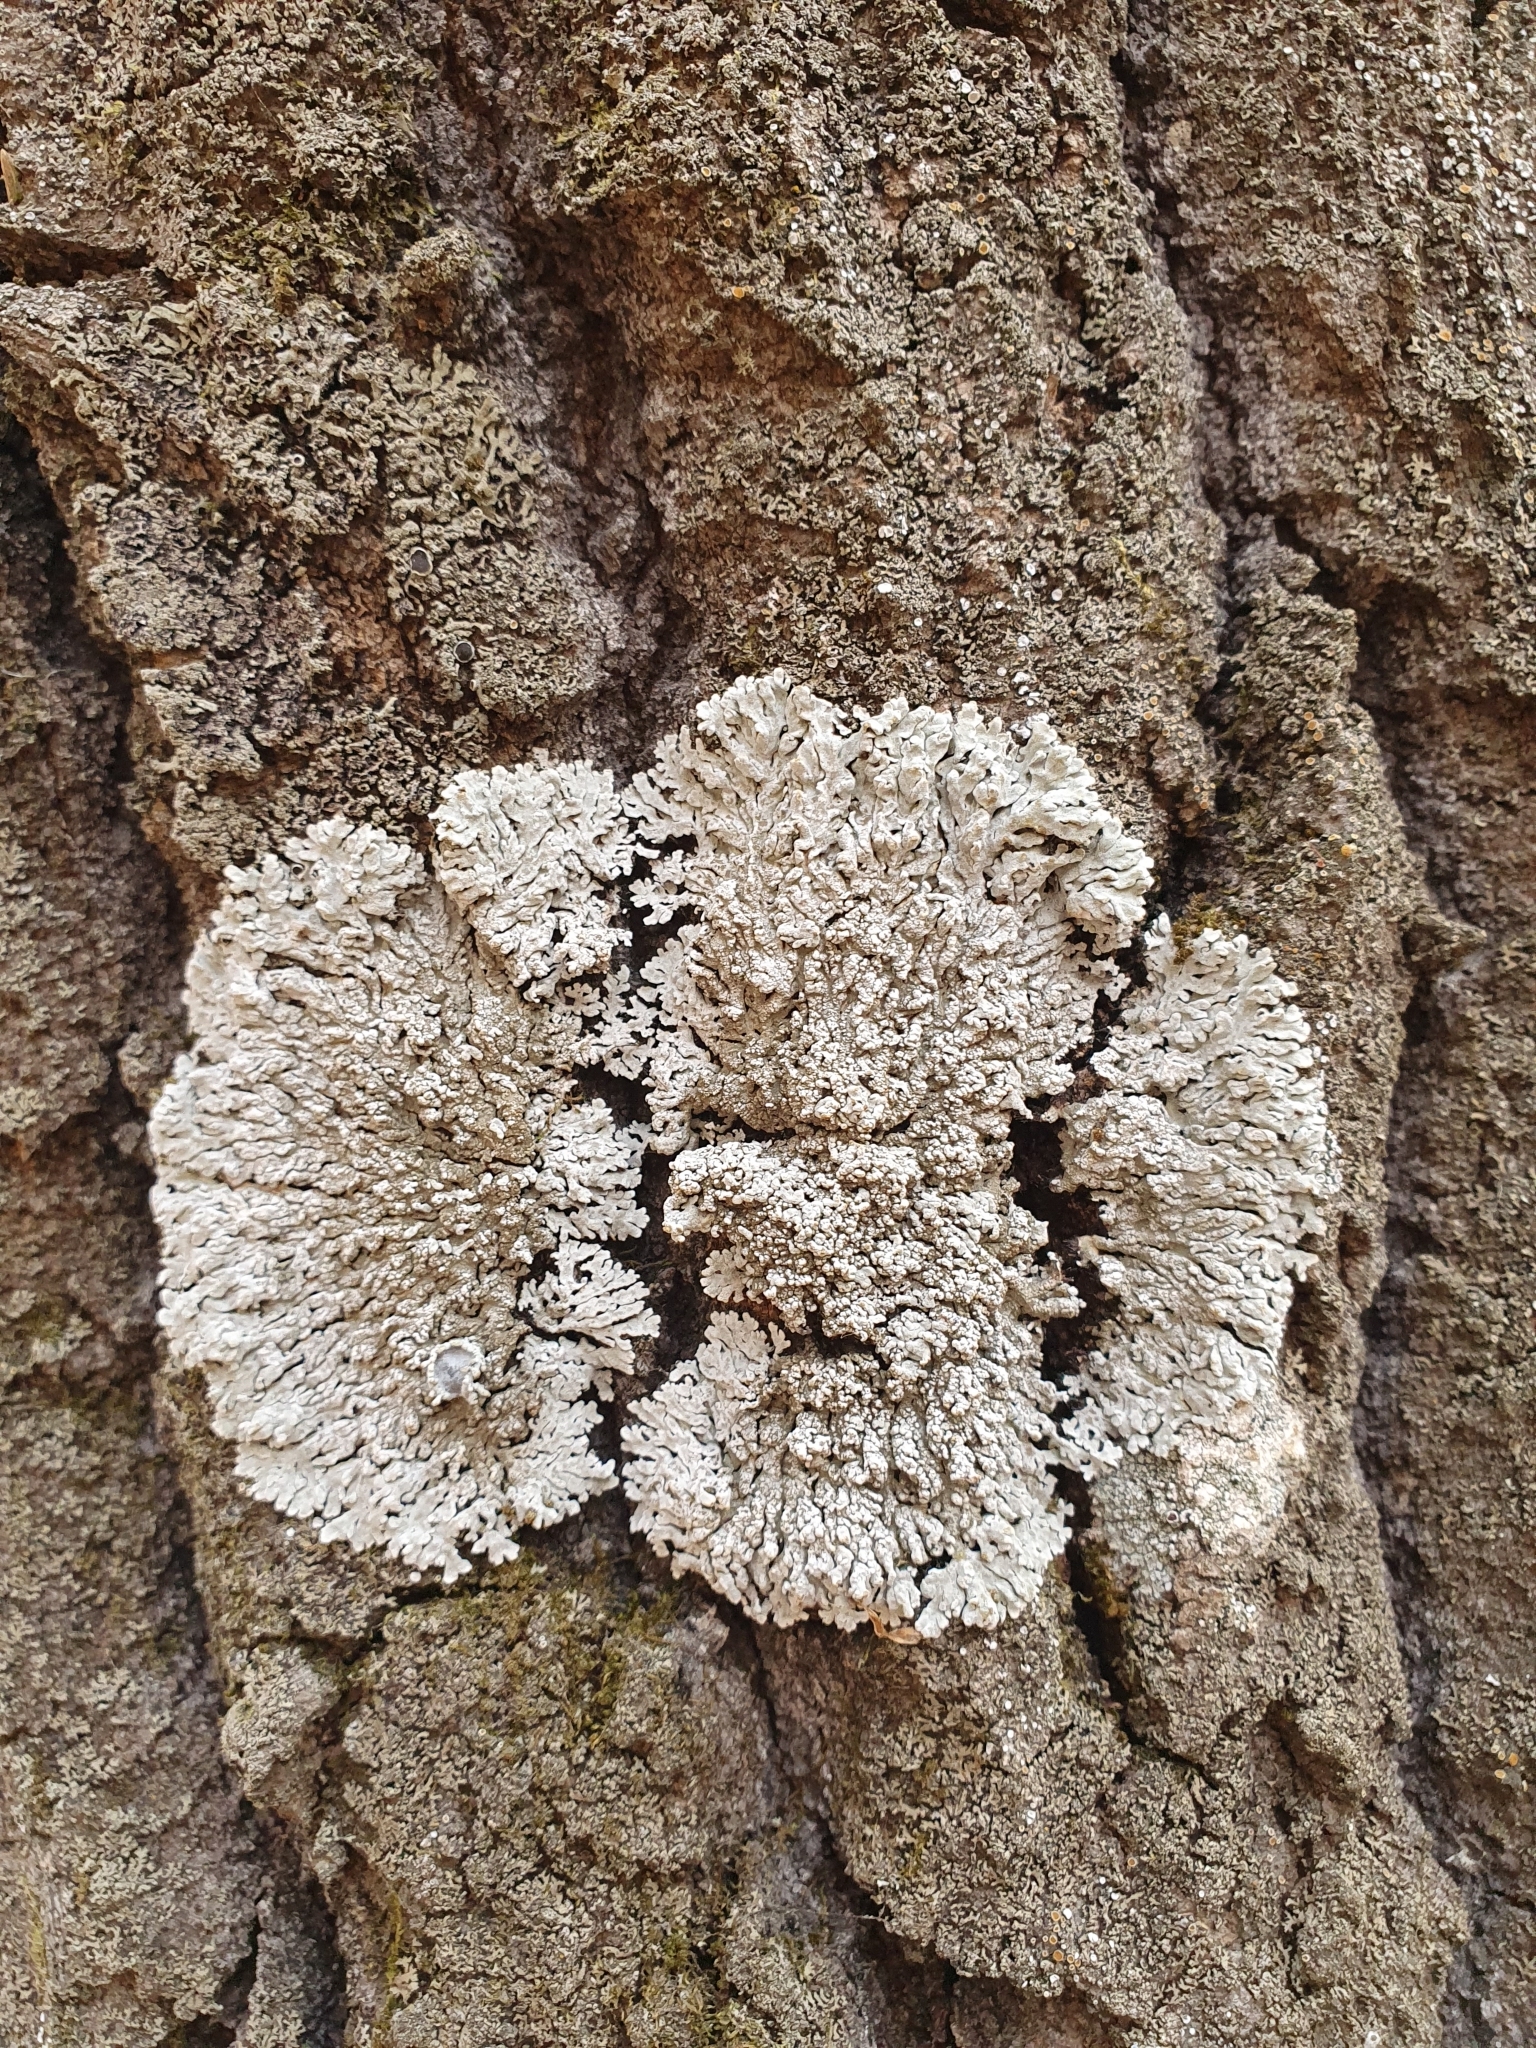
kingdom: Fungi
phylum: Ascomycota
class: Lecanoromycetes
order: Caliciales
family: Physciaceae
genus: Physconia
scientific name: Physconia distorta
